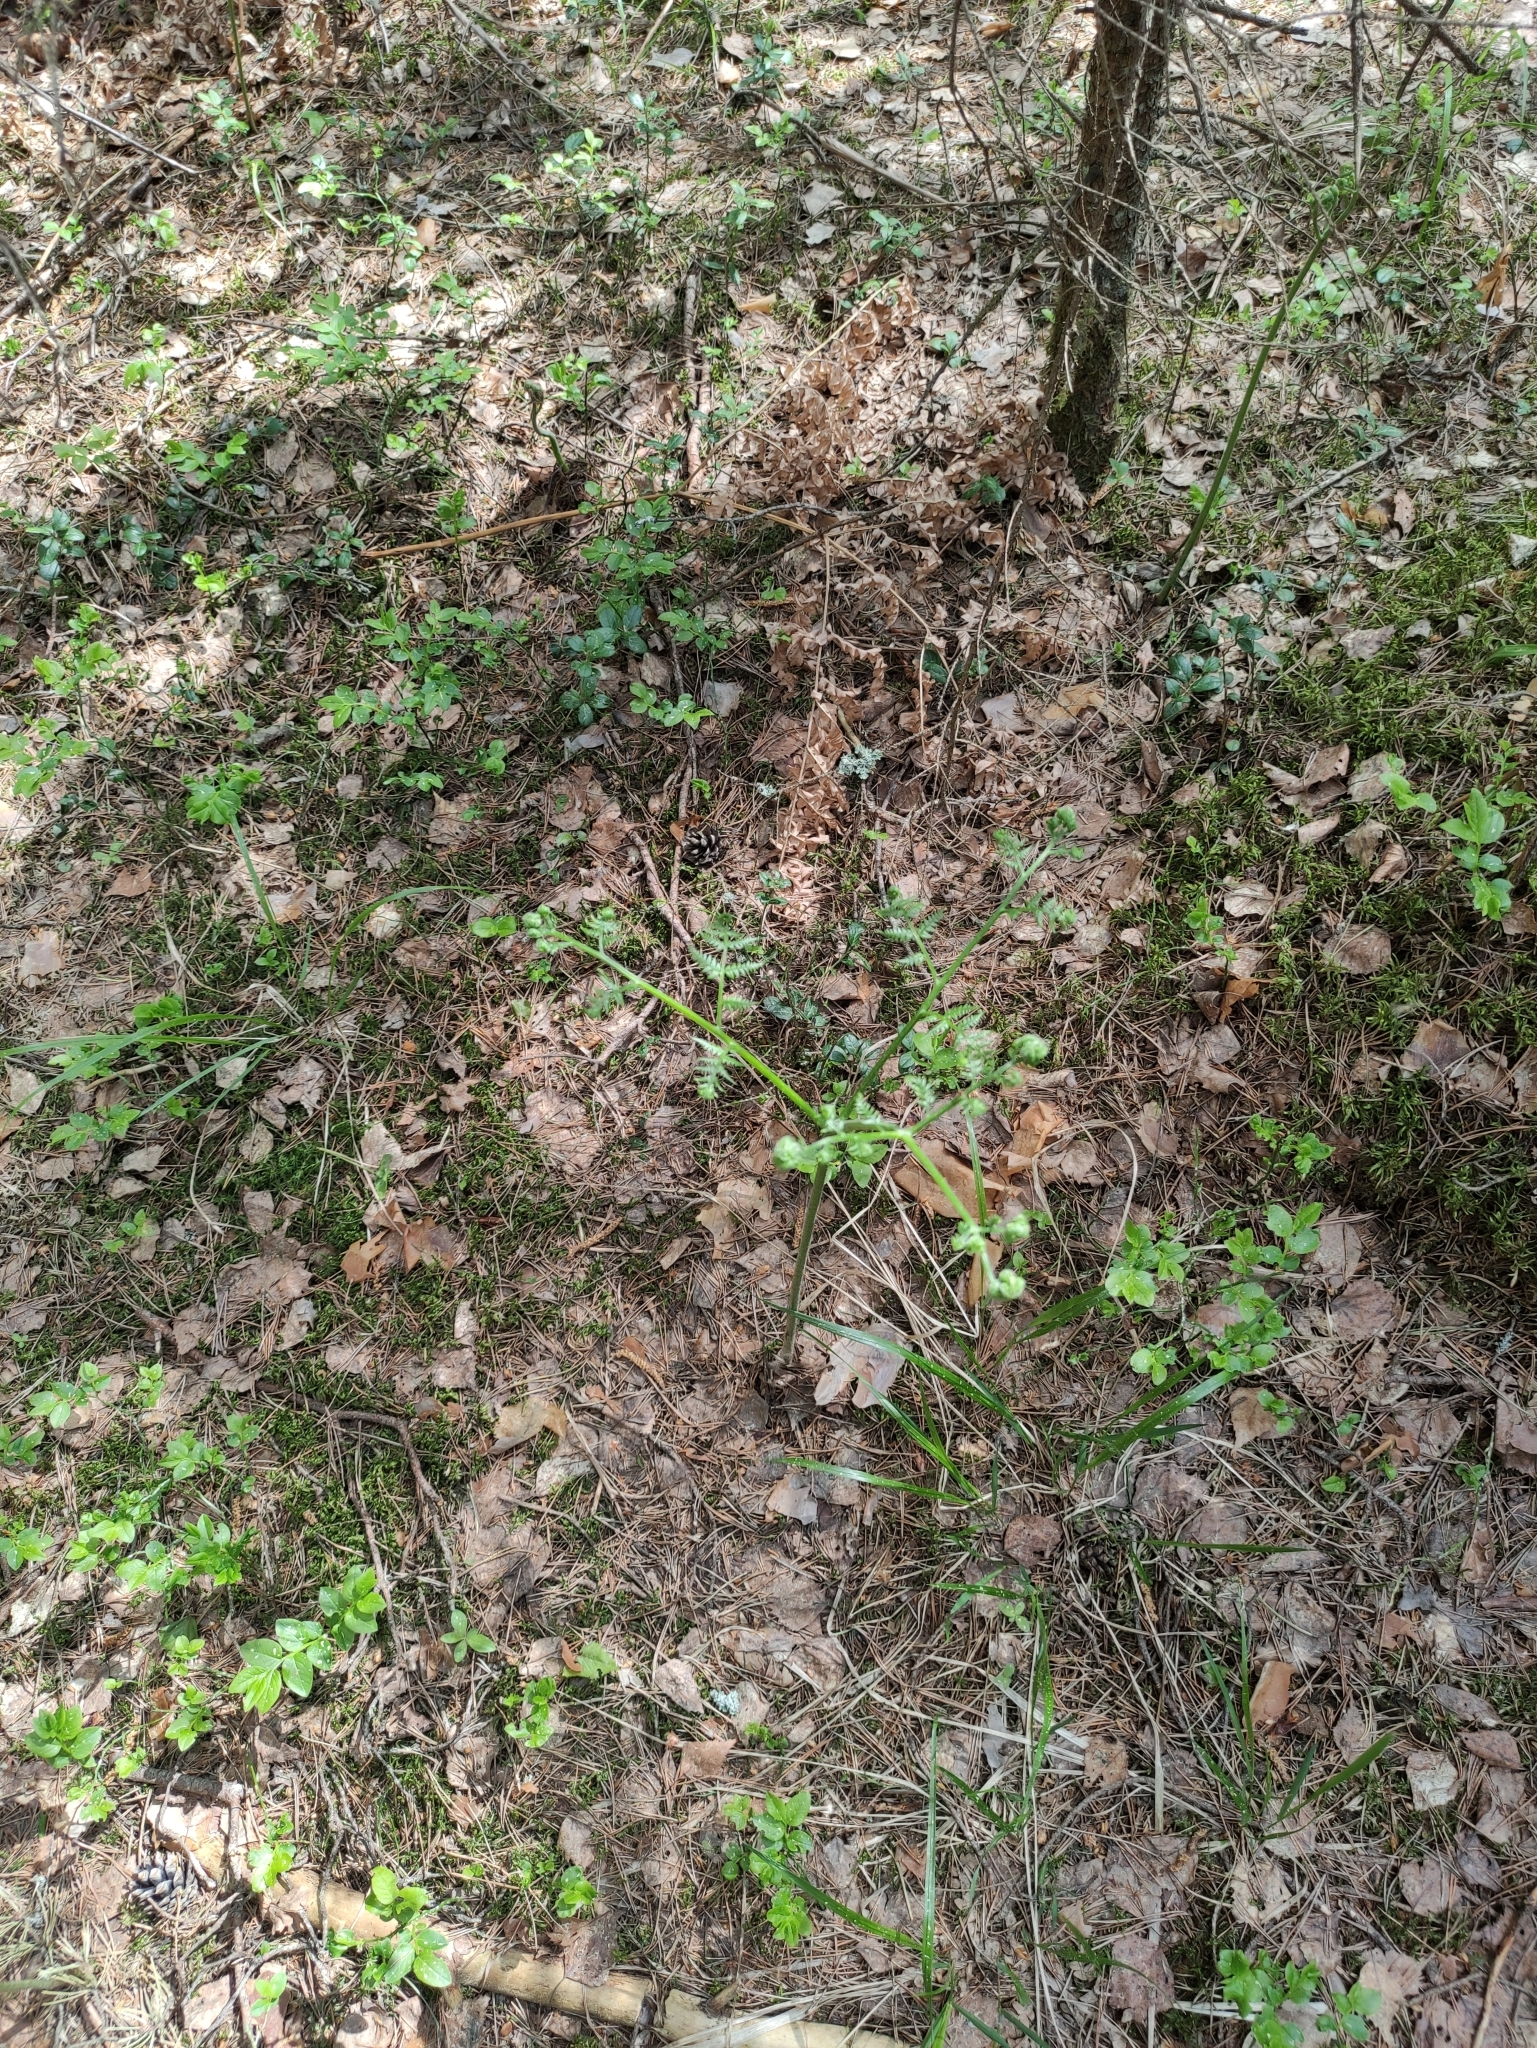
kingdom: Plantae
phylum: Tracheophyta
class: Polypodiopsida
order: Polypodiales
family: Dennstaedtiaceae
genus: Pteridium
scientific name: Pteridium aquilinum
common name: Bracken
